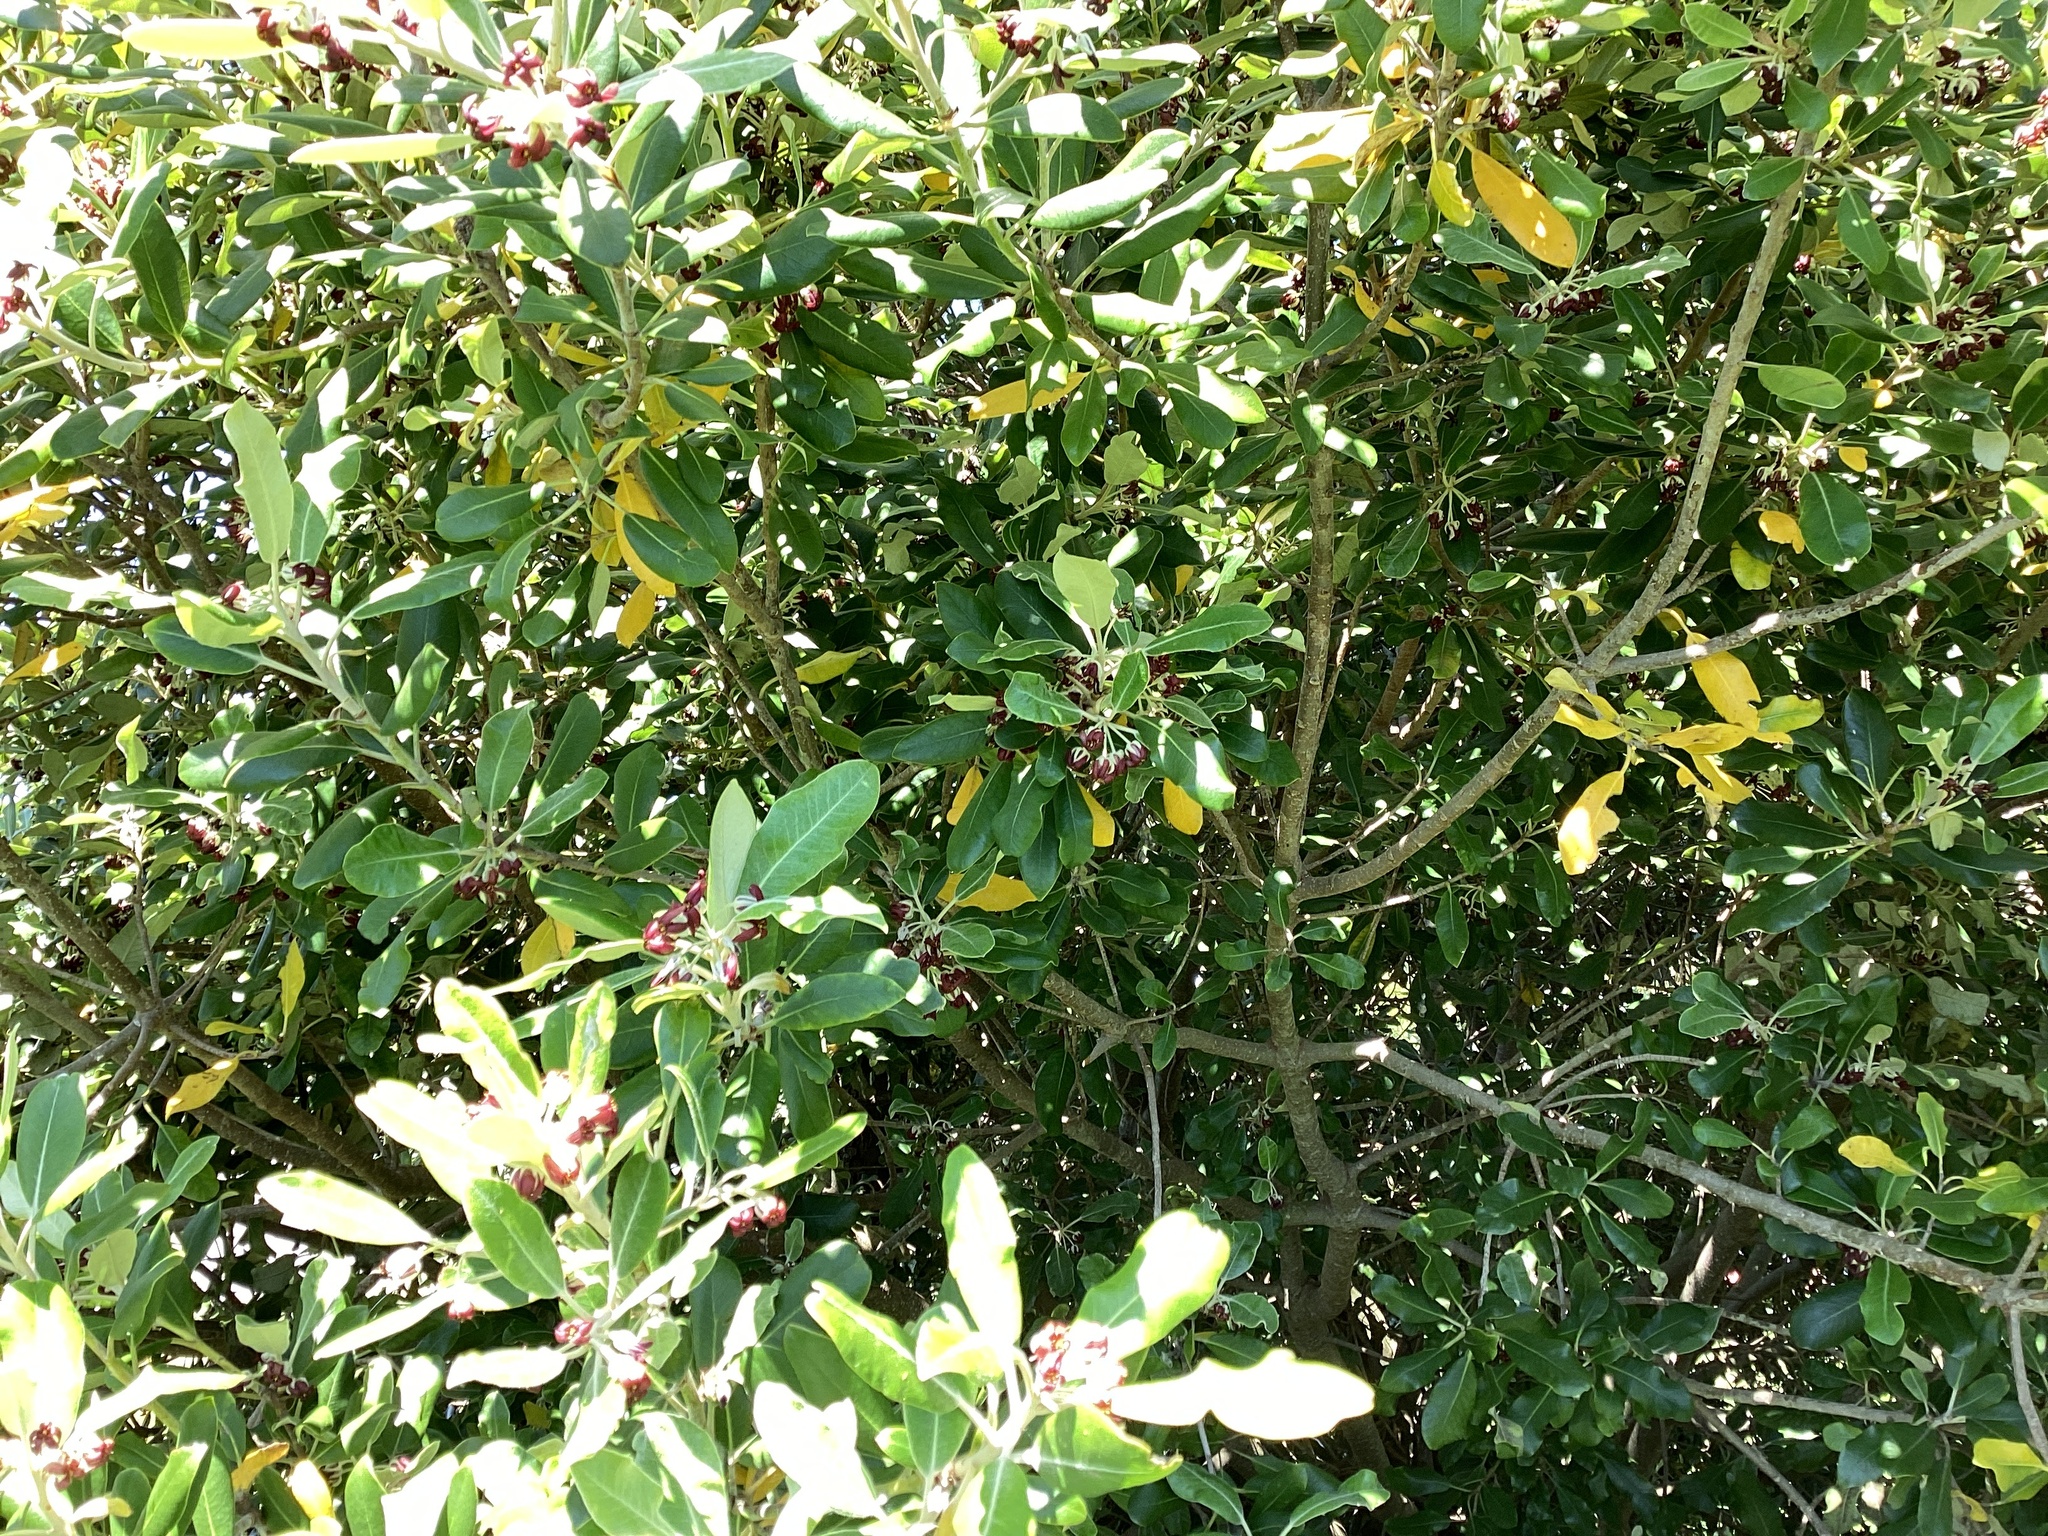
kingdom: Plantae
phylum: Tracheophyta
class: Magnoliopsida
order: Apiales
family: Pittosporaceae
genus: Pittosporum
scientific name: Pittosporum ralphii
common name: Ralph's desertwillow
